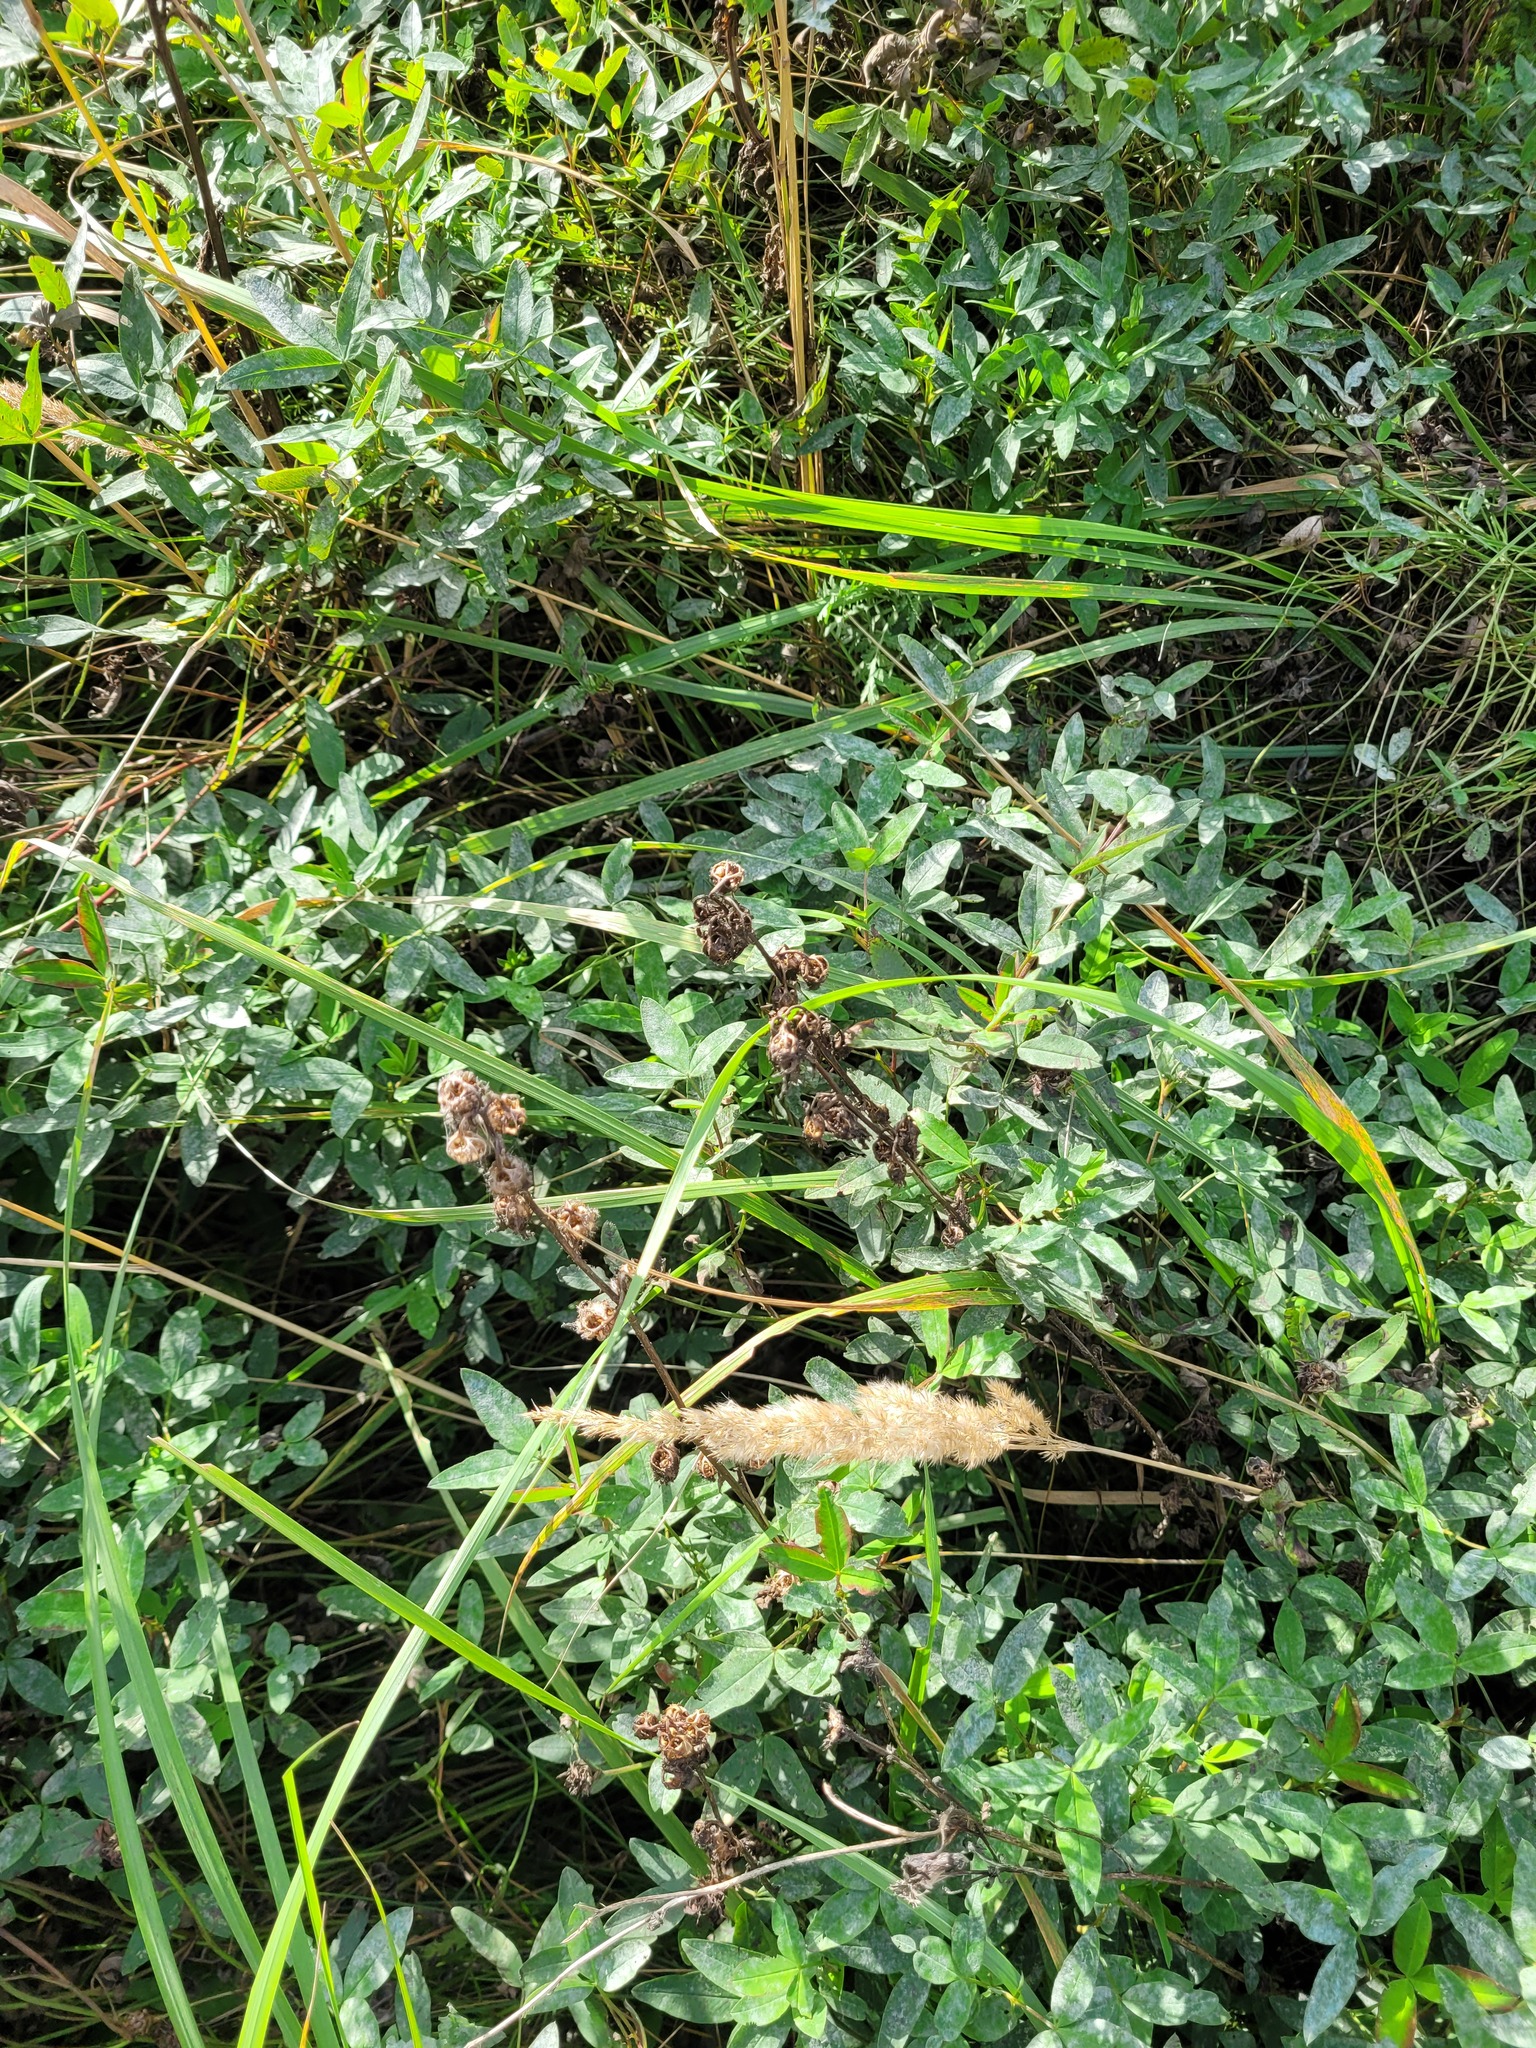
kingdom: Plantae
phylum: Tracheophyta
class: Magnoliopsida
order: Asterales
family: Campanulaceae
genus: Campanula
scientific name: Campanula trachelium
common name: Nettle-leaved bellflower
